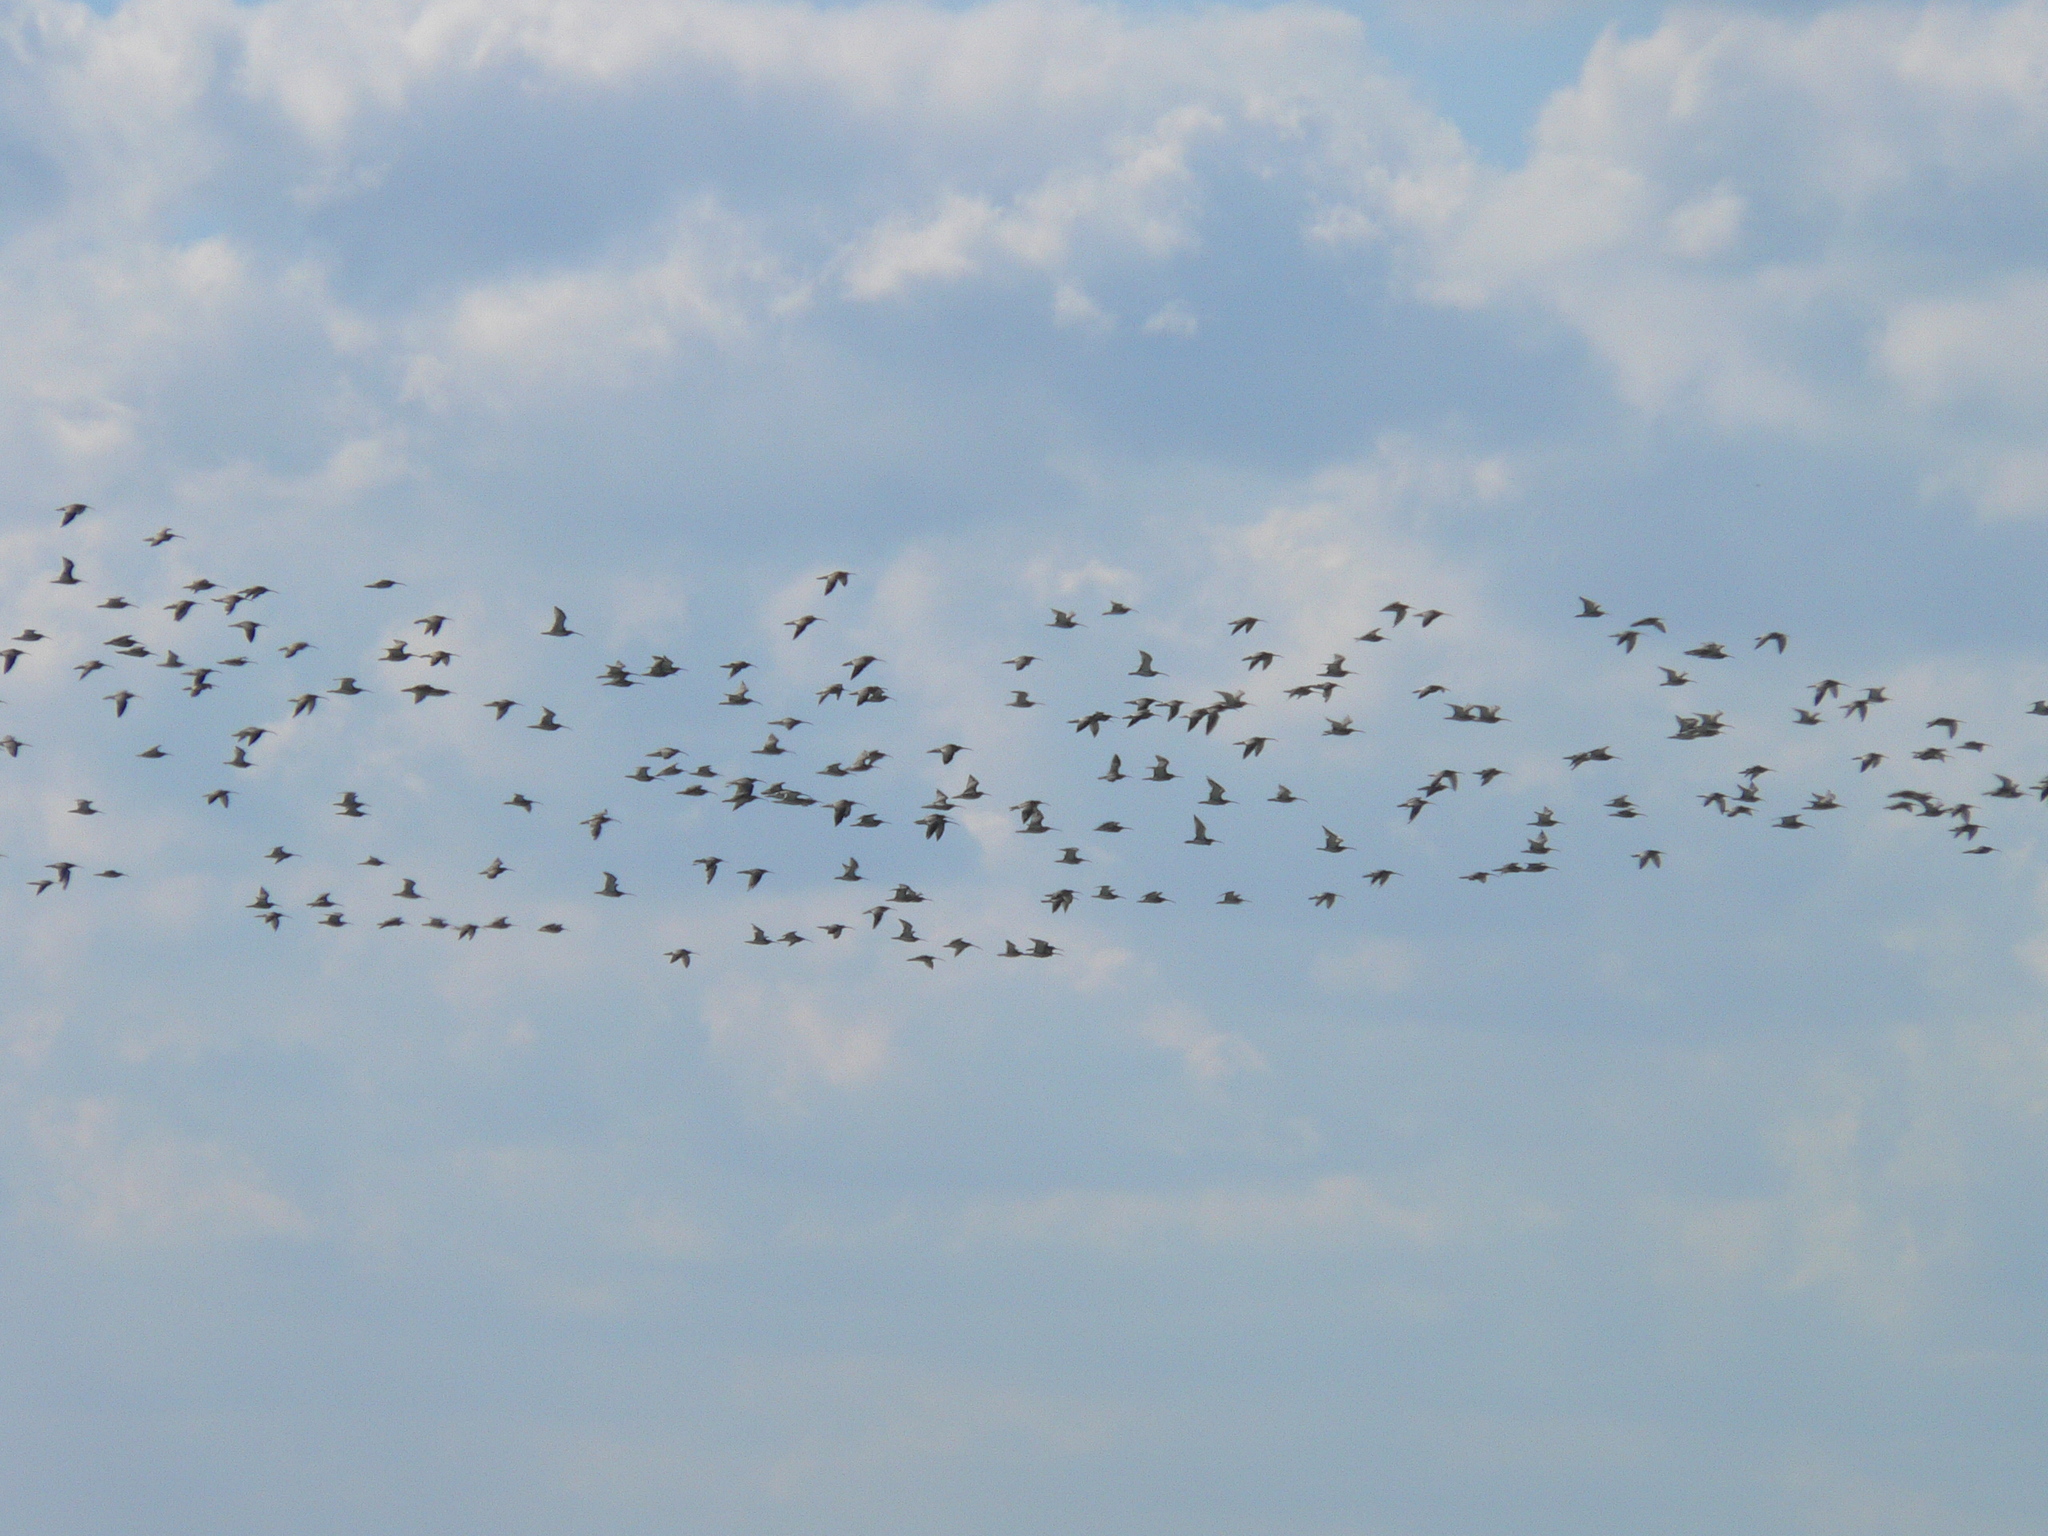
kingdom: Animalia
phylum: Chordata
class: Aves
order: Charadriiformes
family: Scolopacidae
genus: Numenius
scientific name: Numenius arquata
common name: Eurasian curlew
